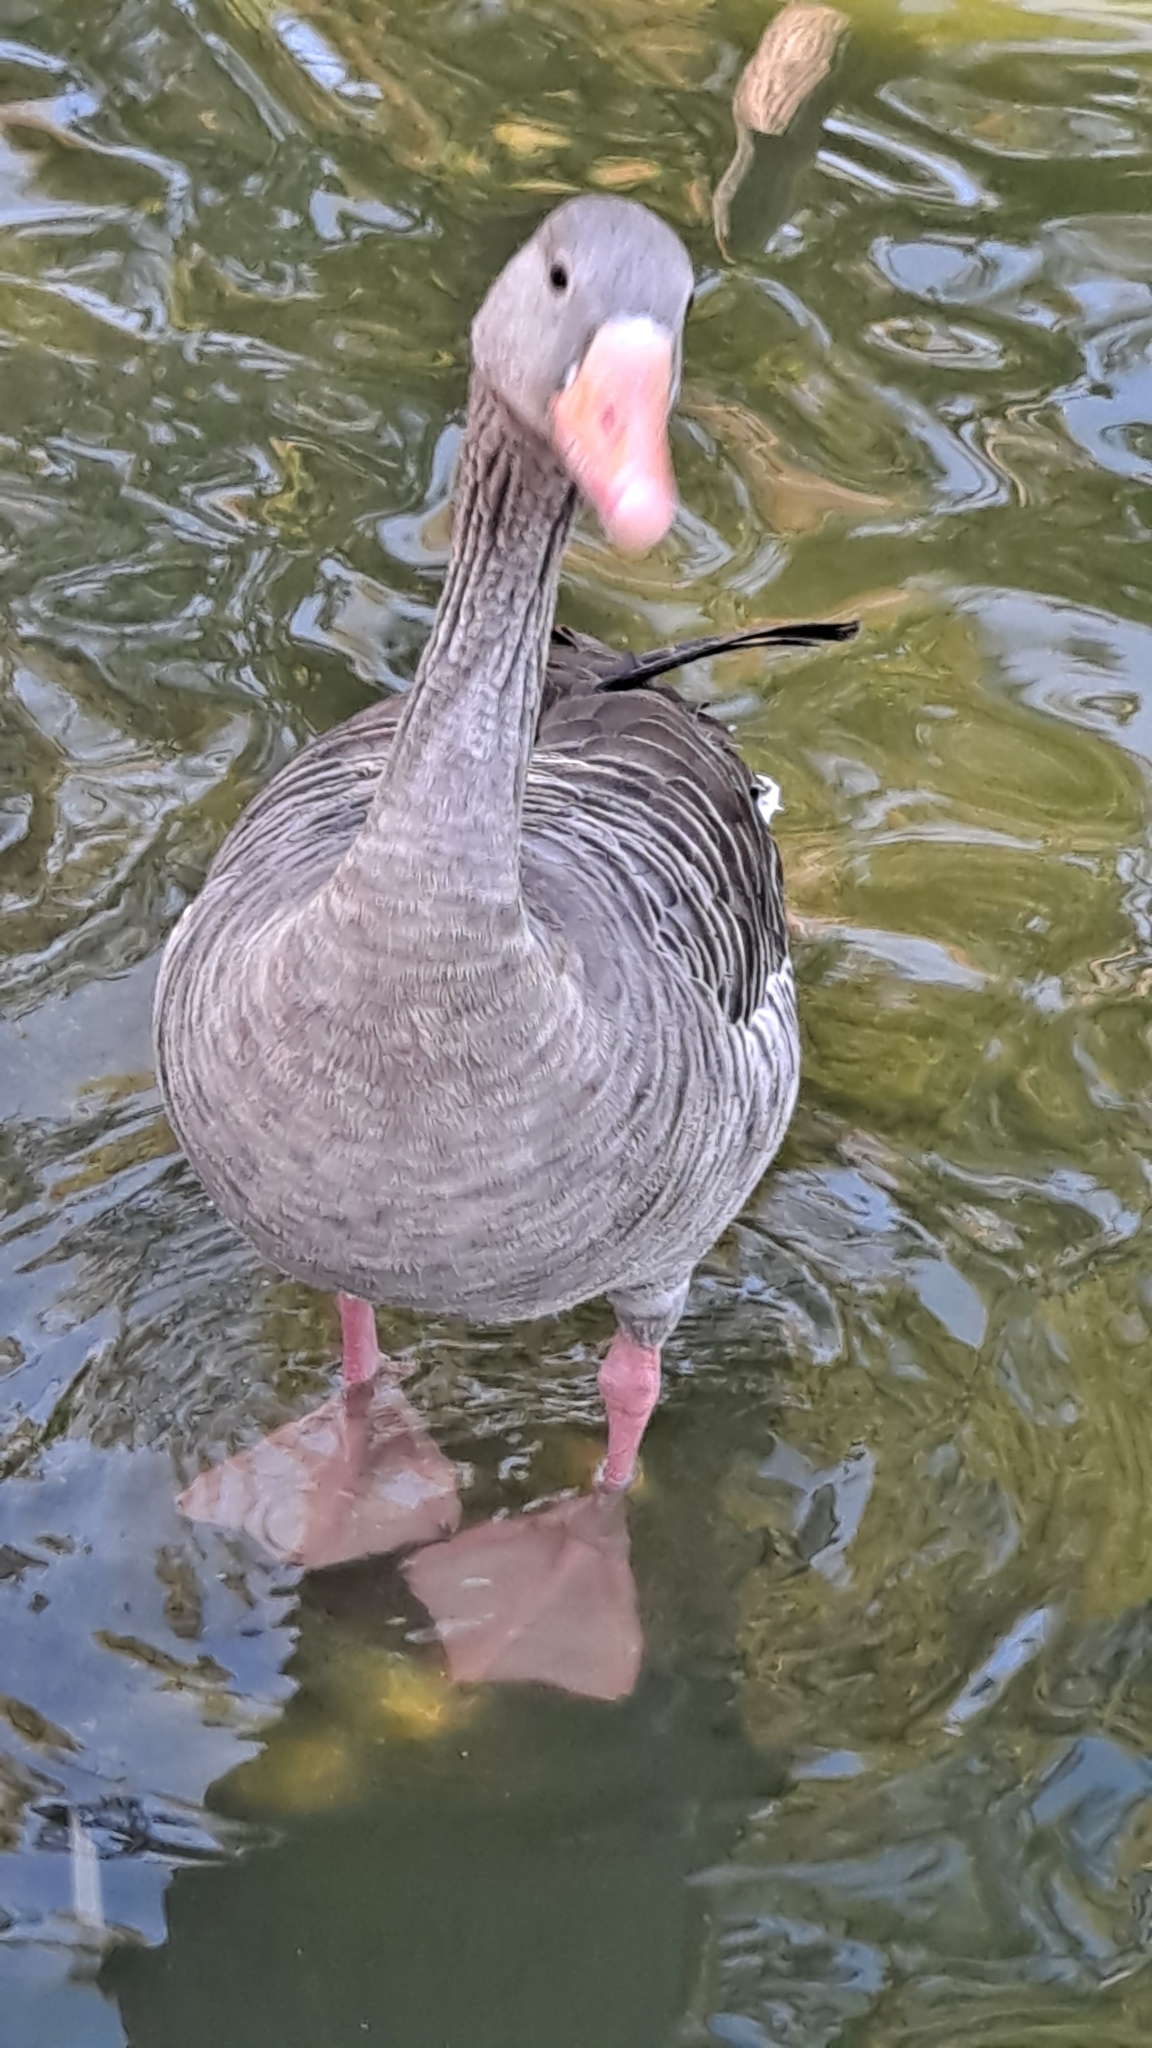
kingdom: Animalia
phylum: Chordata
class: Aves
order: Anseriformes
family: Anatidae
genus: Anser
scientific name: Anser anser
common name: Greylag goose
